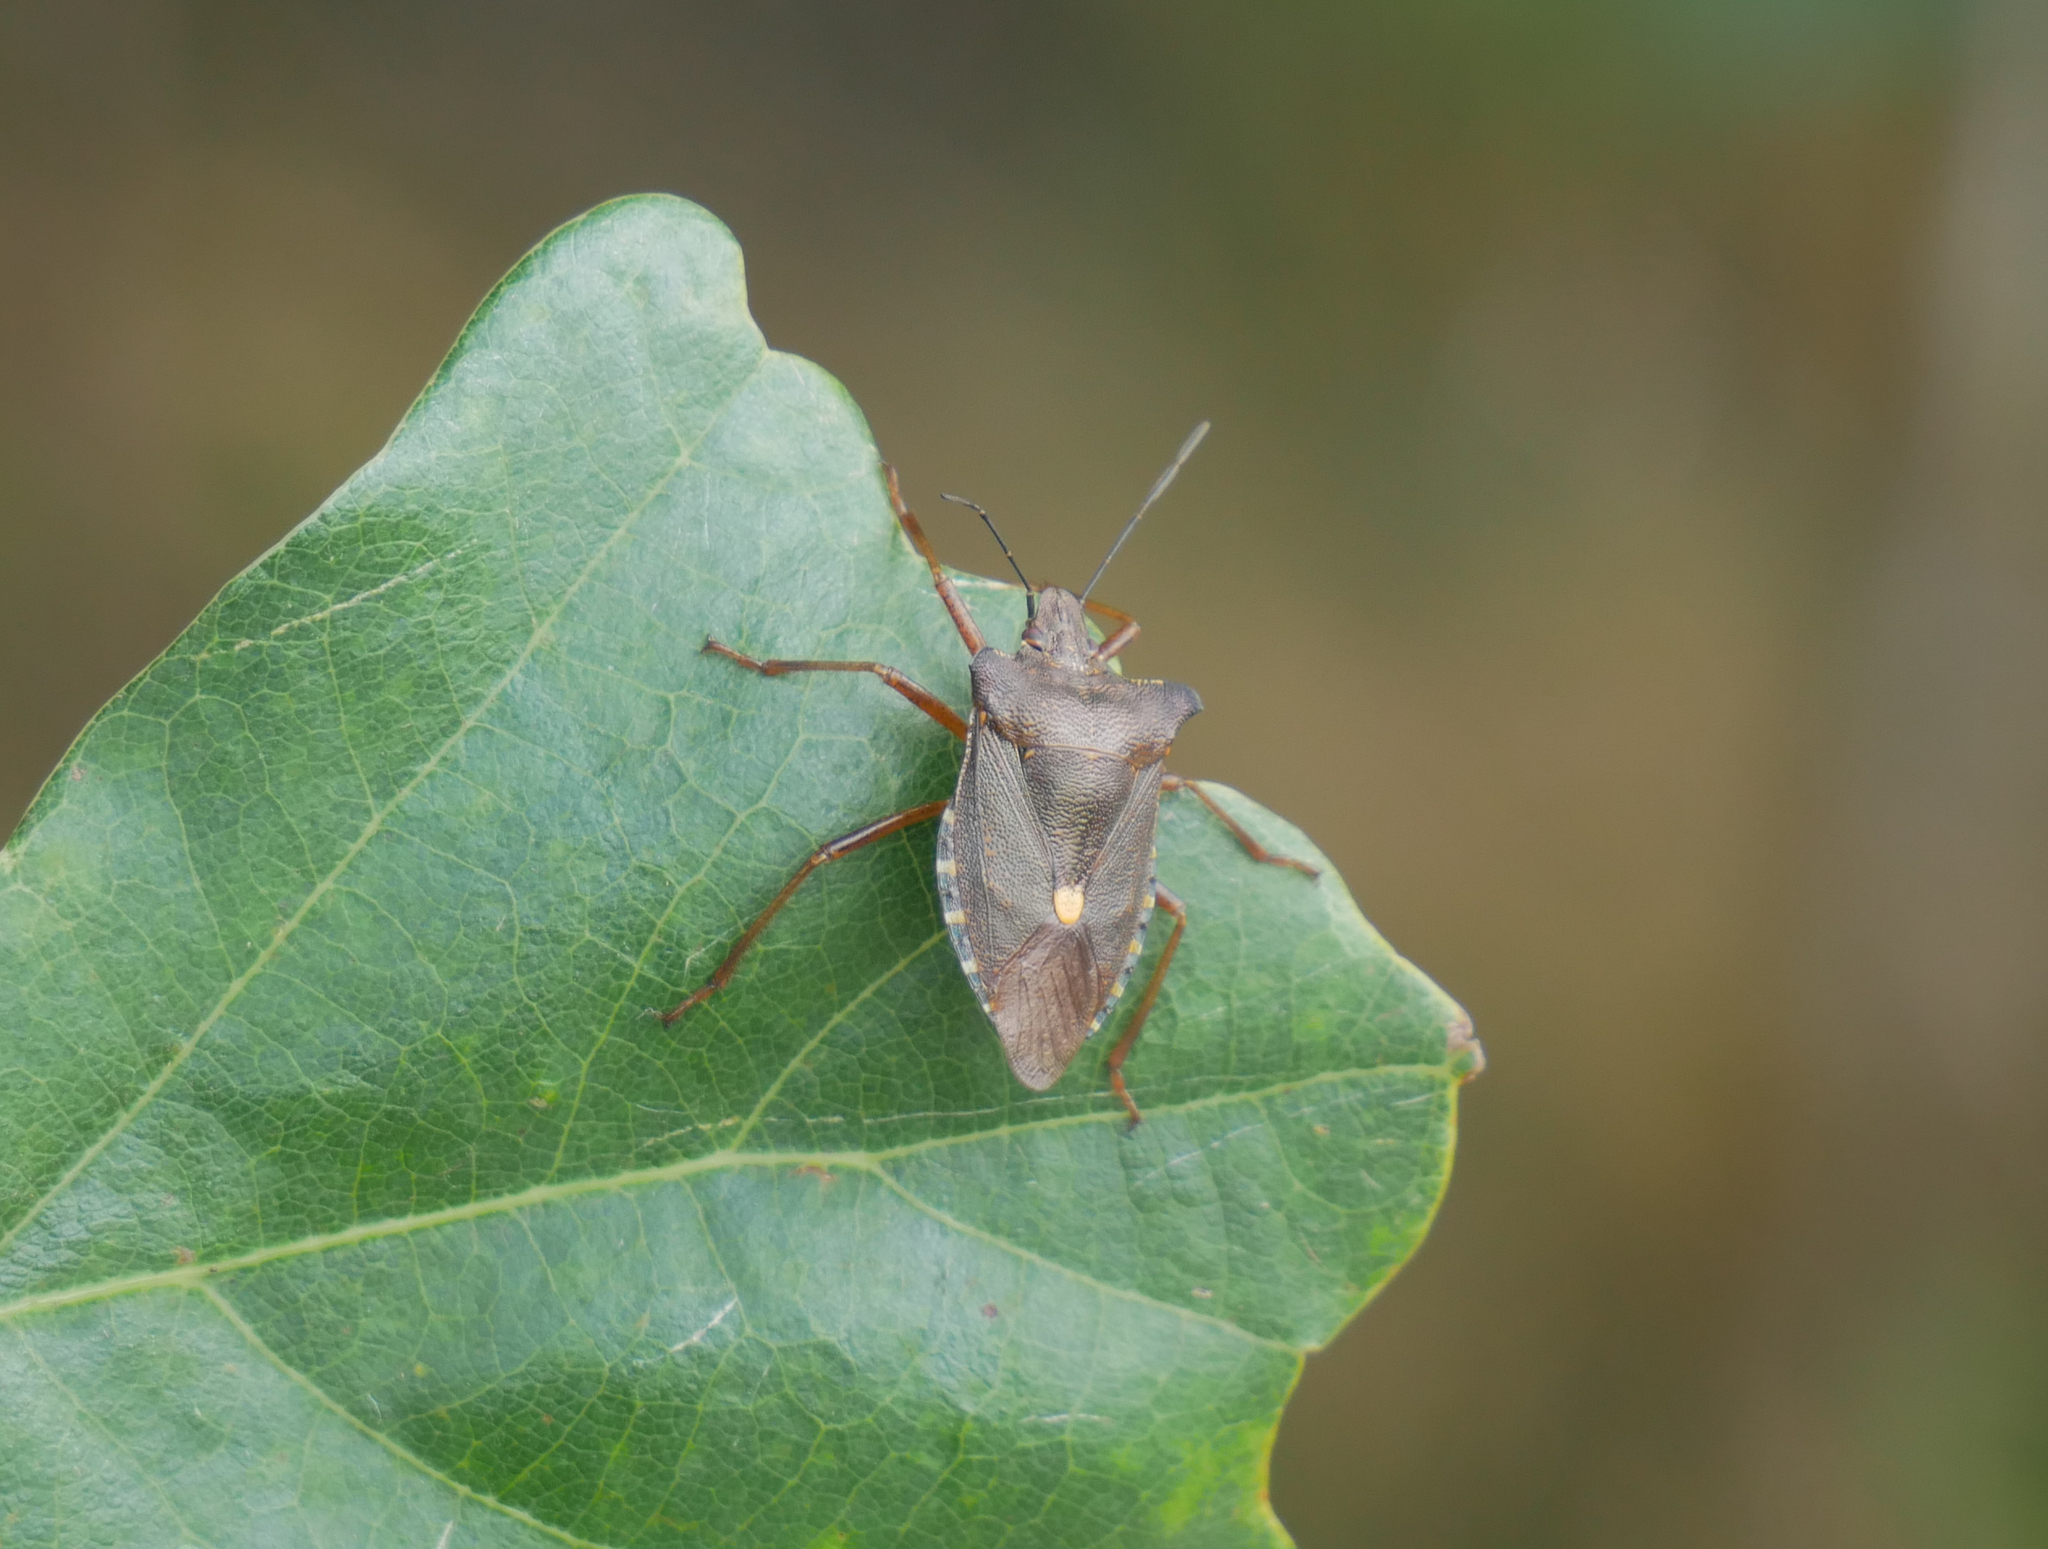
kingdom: Animalia
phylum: Arthropoda
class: Insecta
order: Hemiptera
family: Pentatomidae
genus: Pentatoma
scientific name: Pentatoma rufipes
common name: Forest bug
